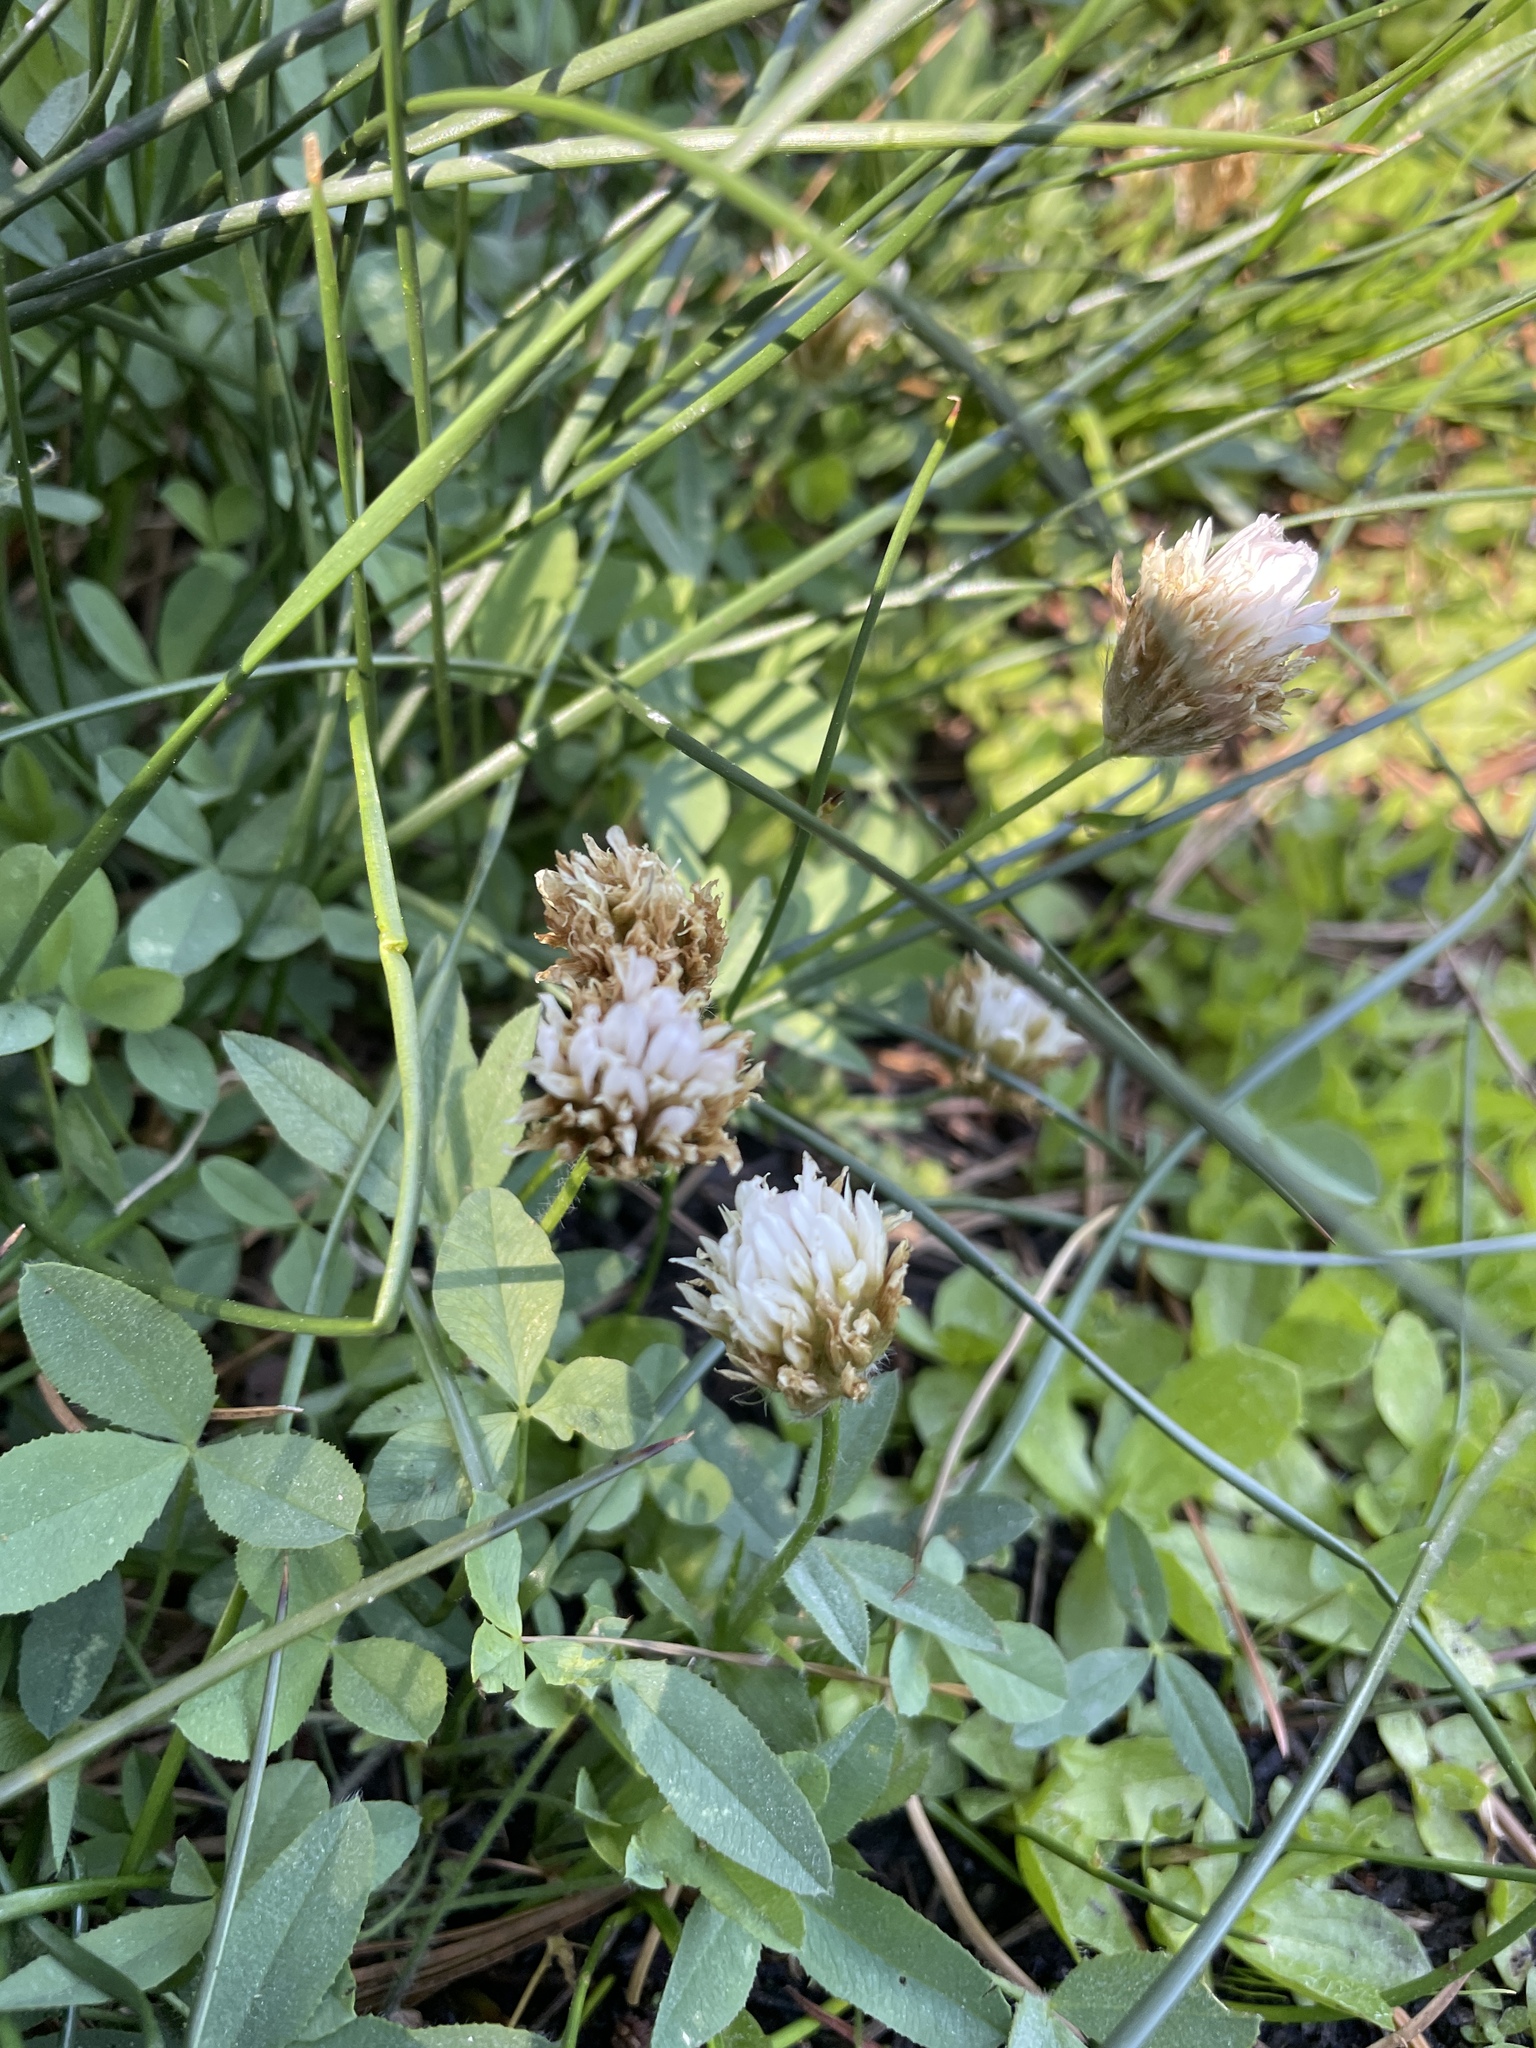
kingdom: Plantae
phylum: Tracheophyta
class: Magnoliopsida
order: Fabales
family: Fabaceae
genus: Trifolium
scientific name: Trifolium longipes
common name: Long-stalk clover
